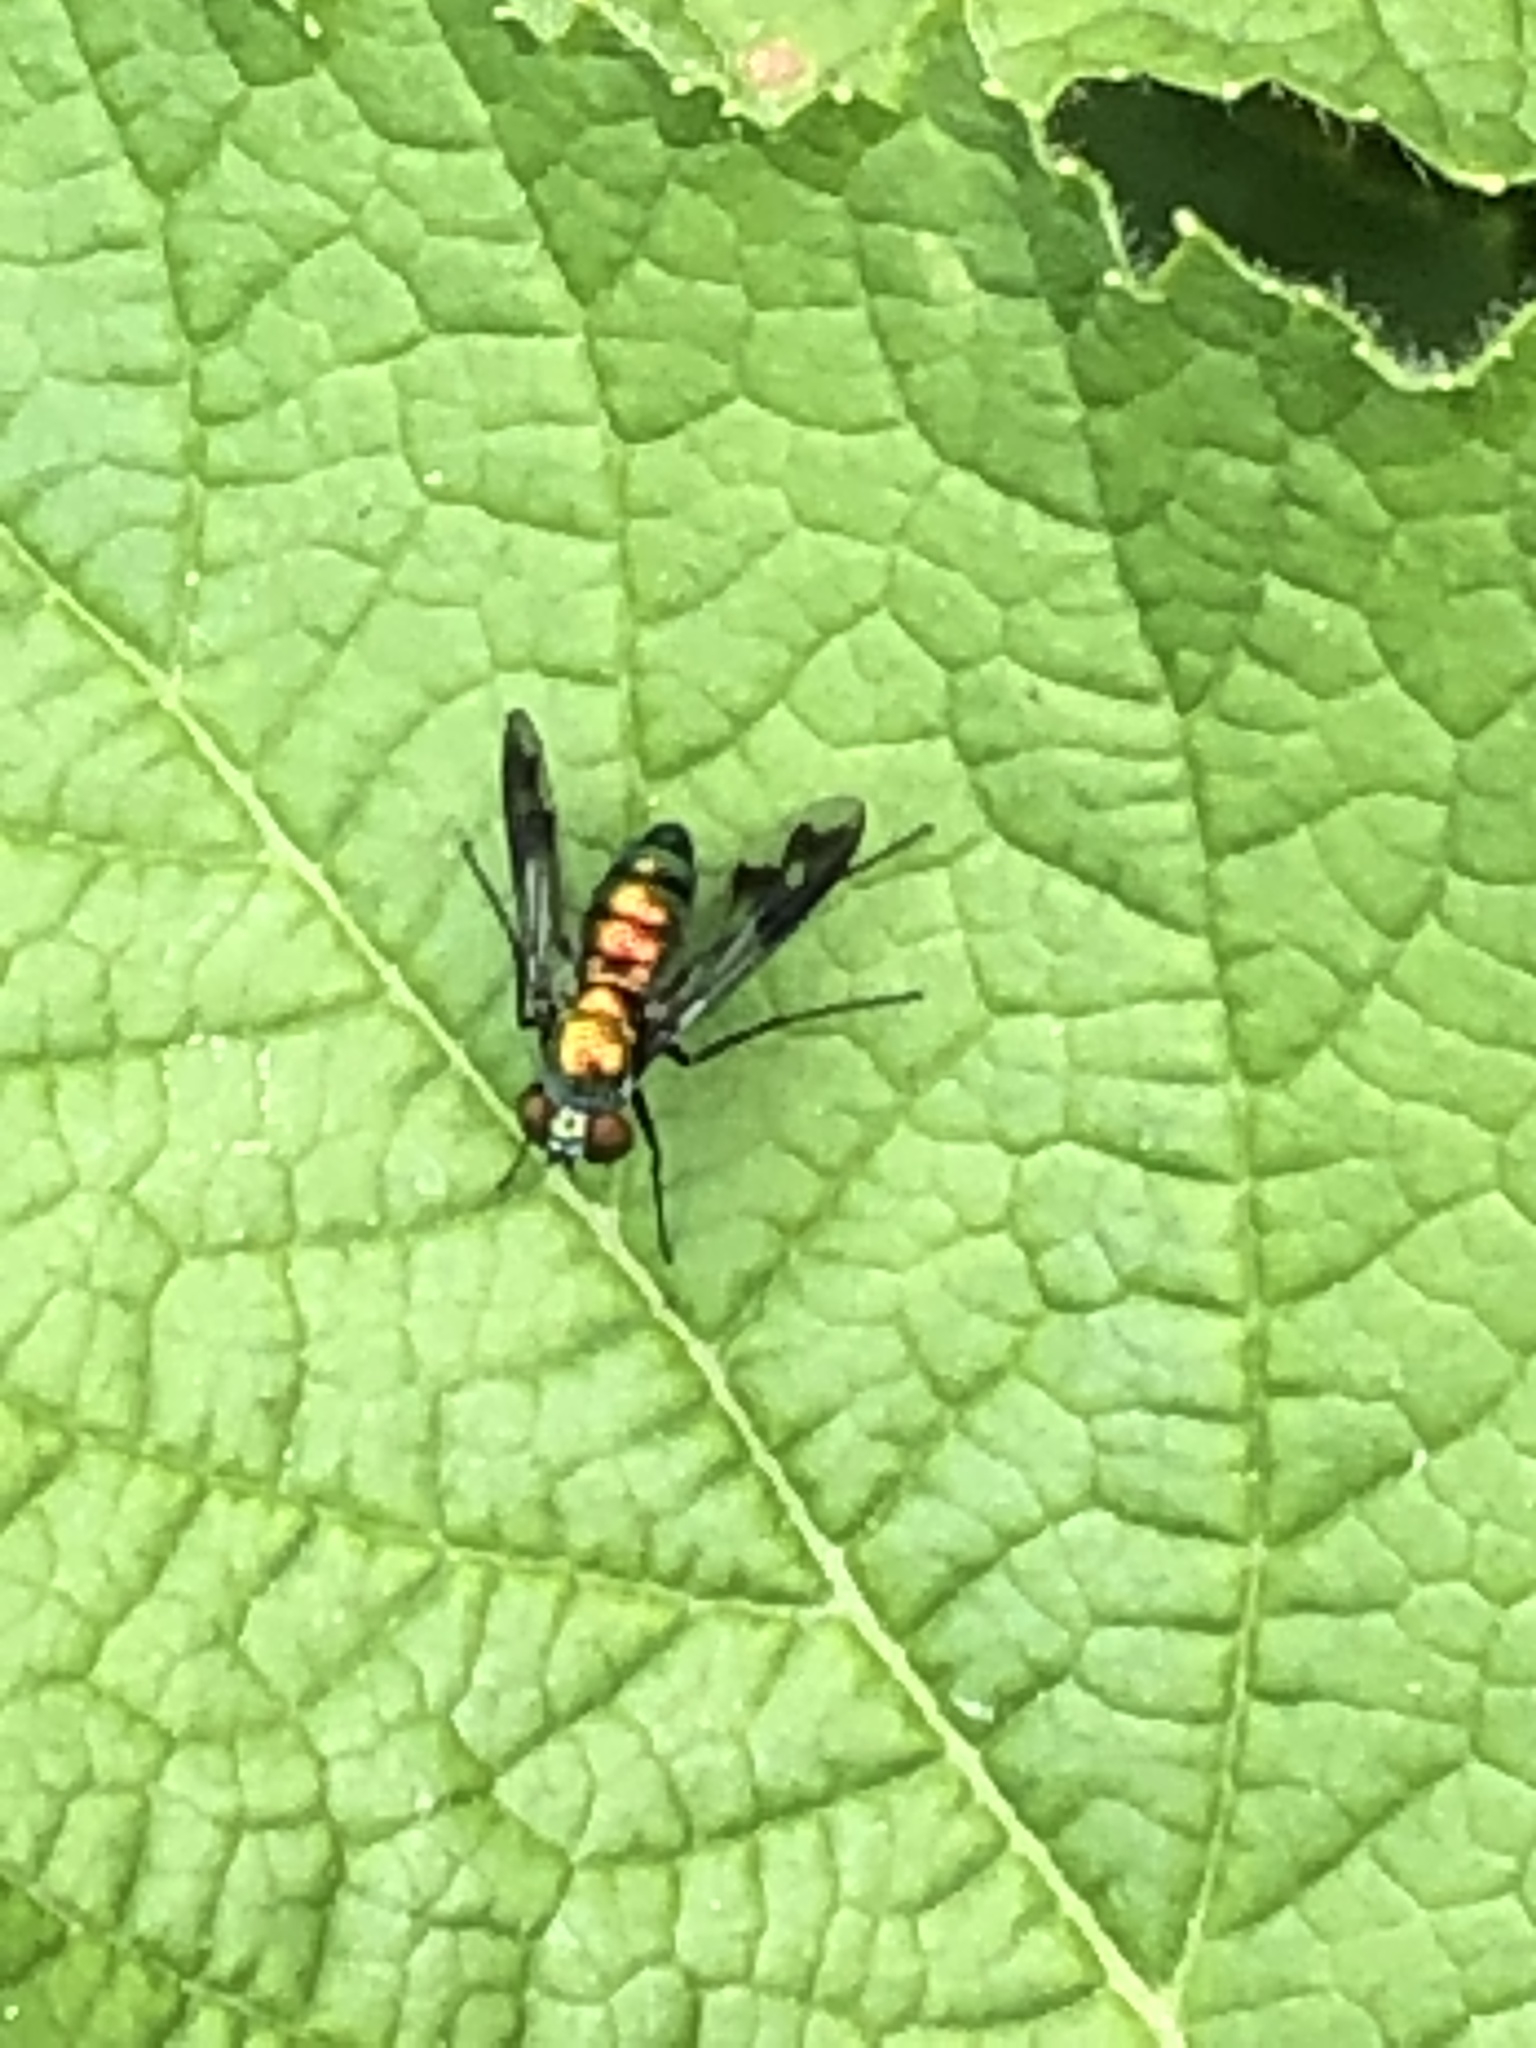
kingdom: Animalia
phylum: Arthropoda
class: Insecta
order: Diptera
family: Dolichopodidae
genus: Condylostylus
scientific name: Condylostylus patibulatus
